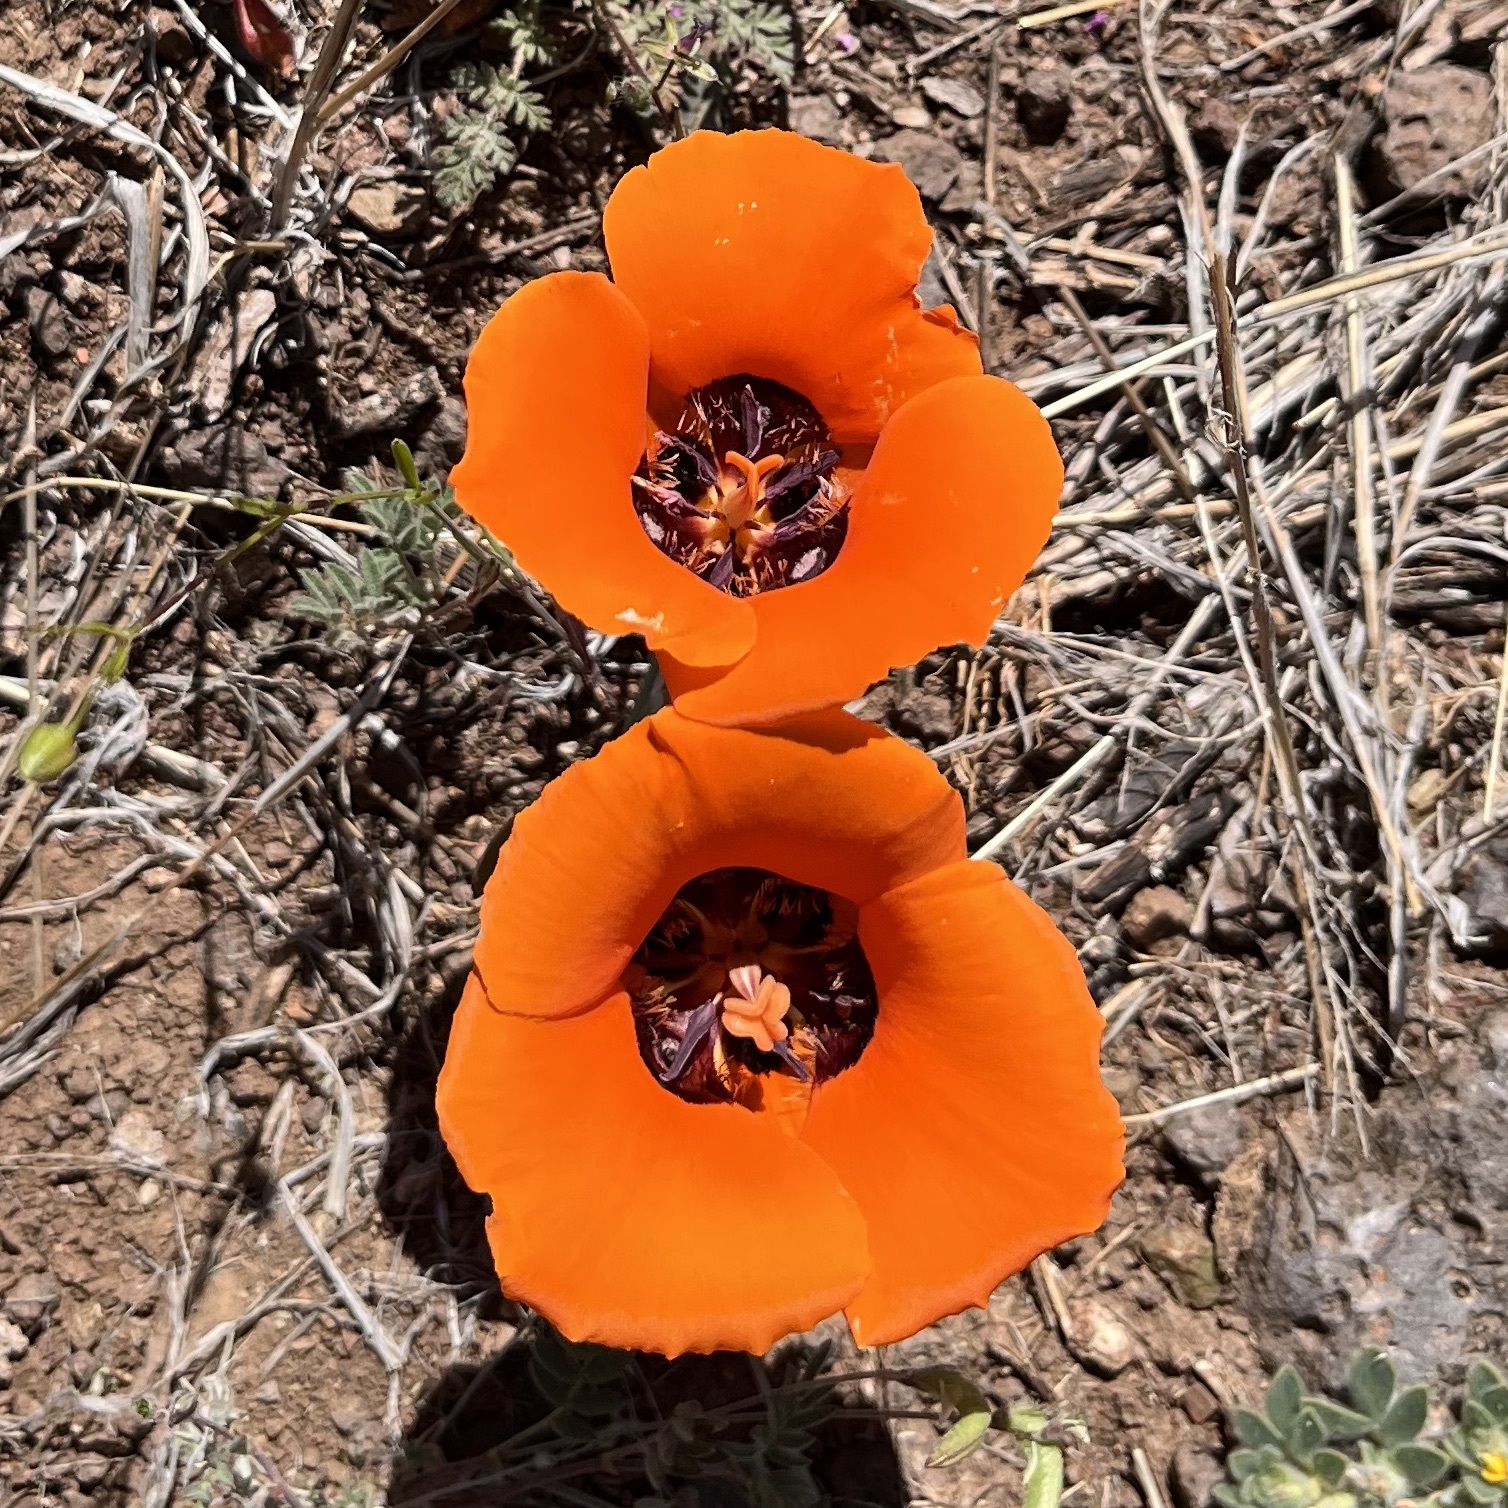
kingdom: Plantae
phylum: Tracheophyta
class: Liliopsida
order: Liliales
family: Liliaceae
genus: Calochortus
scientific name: Calochortus kennedyi
